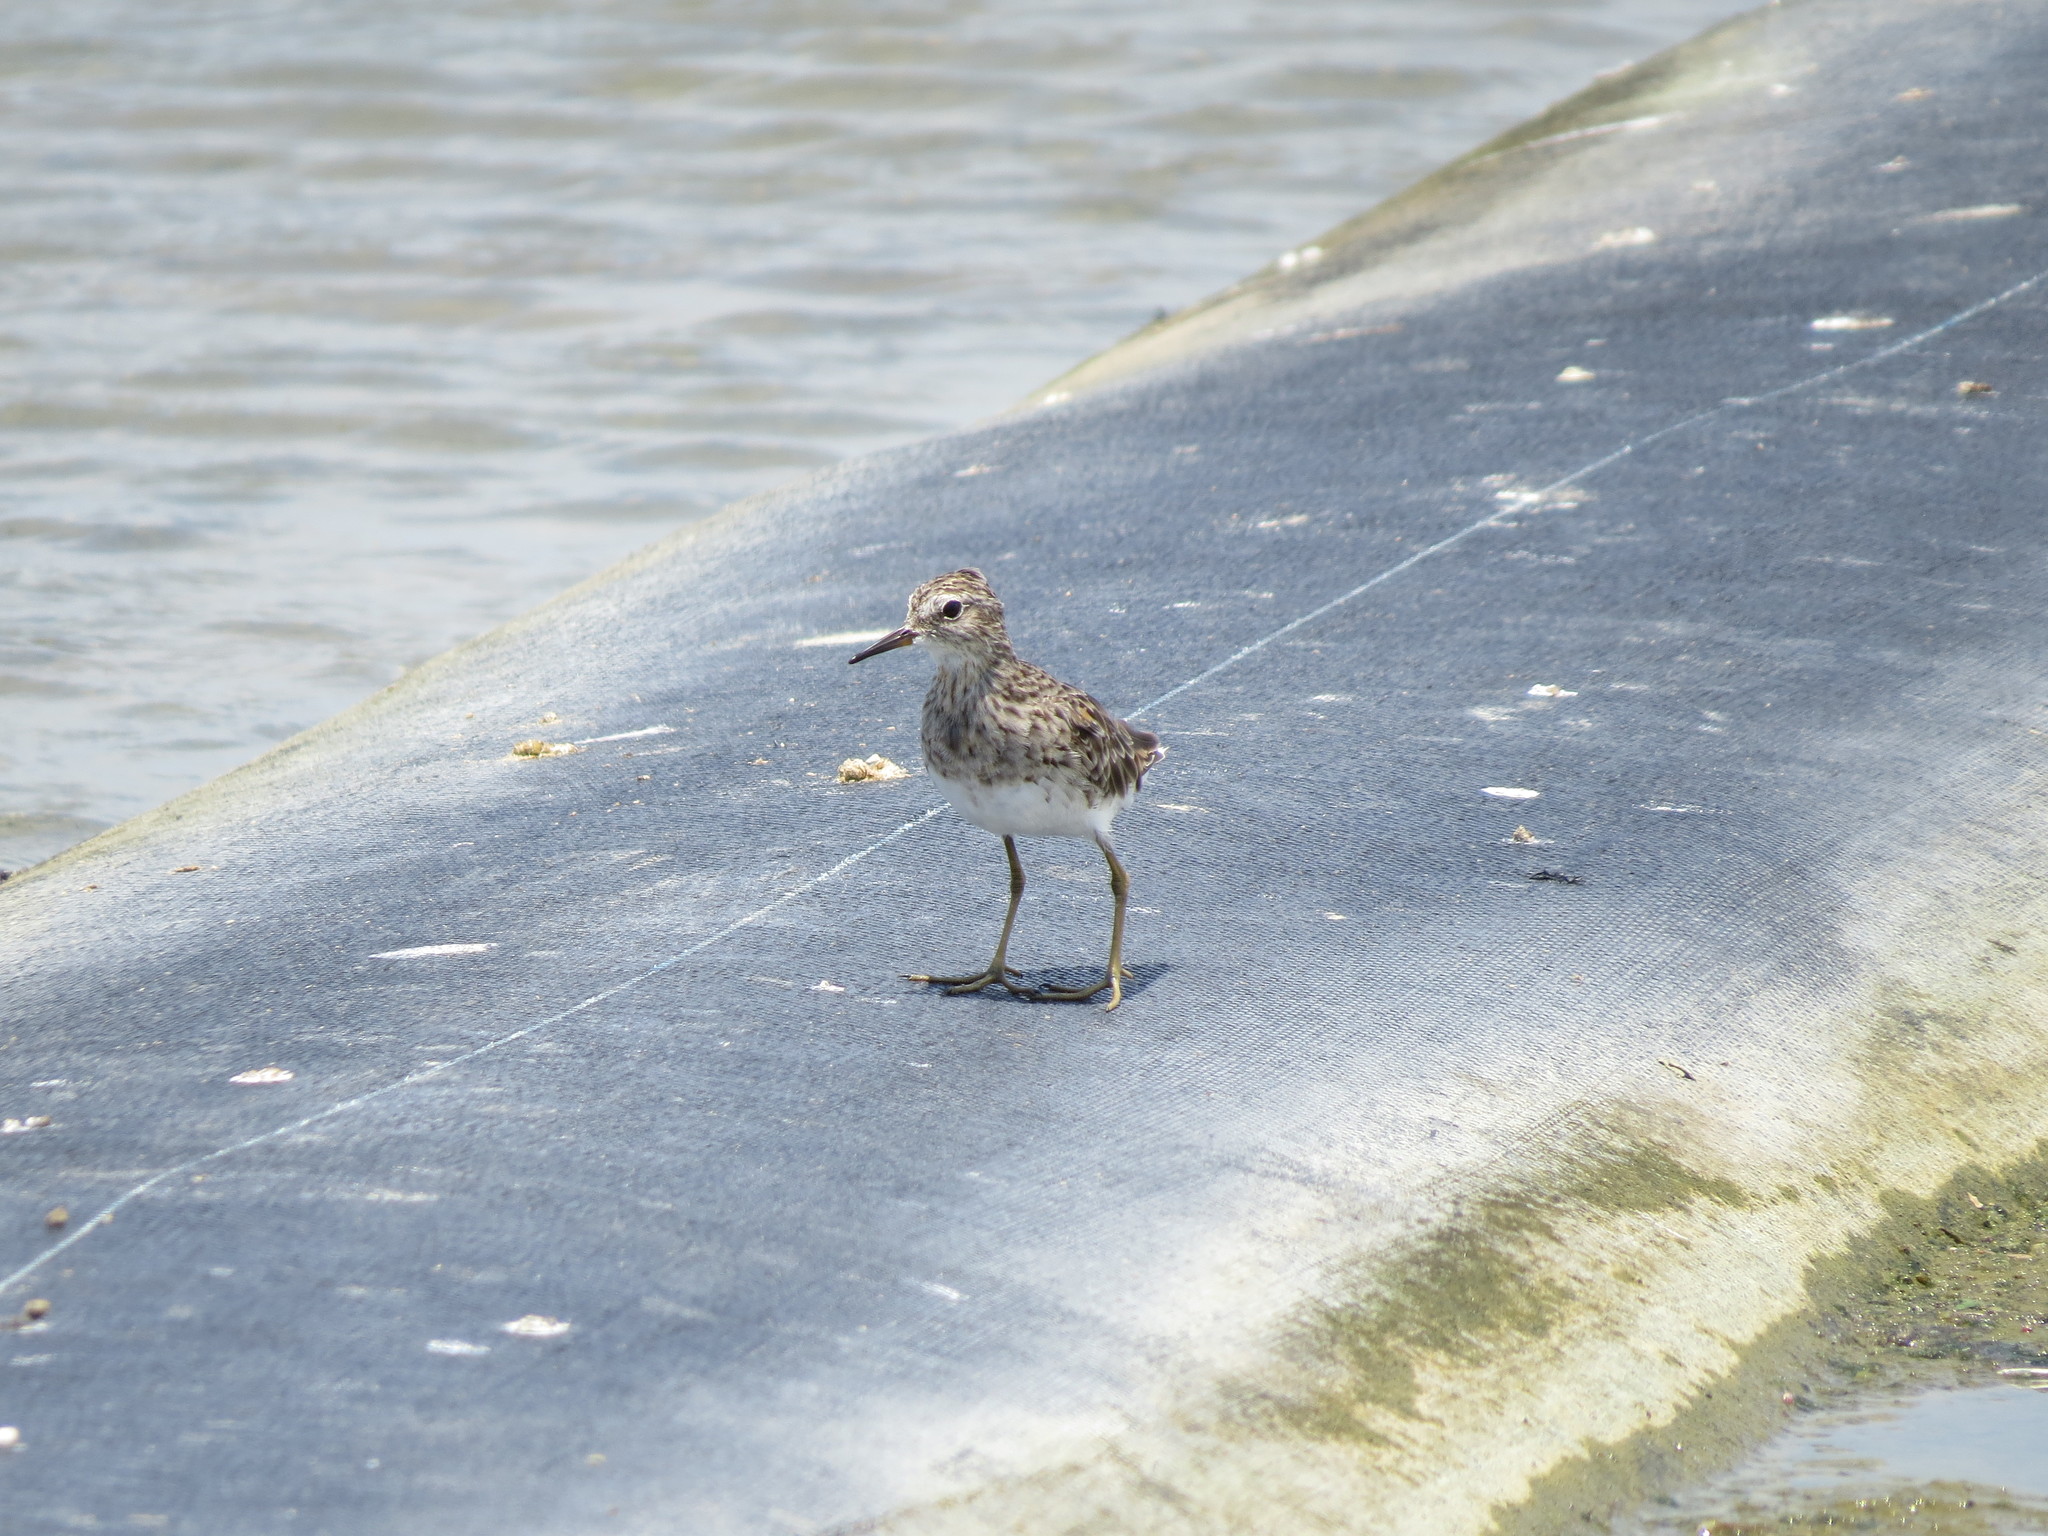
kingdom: Animalia
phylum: Chordata
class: Aves
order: Charadriiformes
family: Scolopacidae
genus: Calidris
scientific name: Calidris subminuta
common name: Long-toed stint
